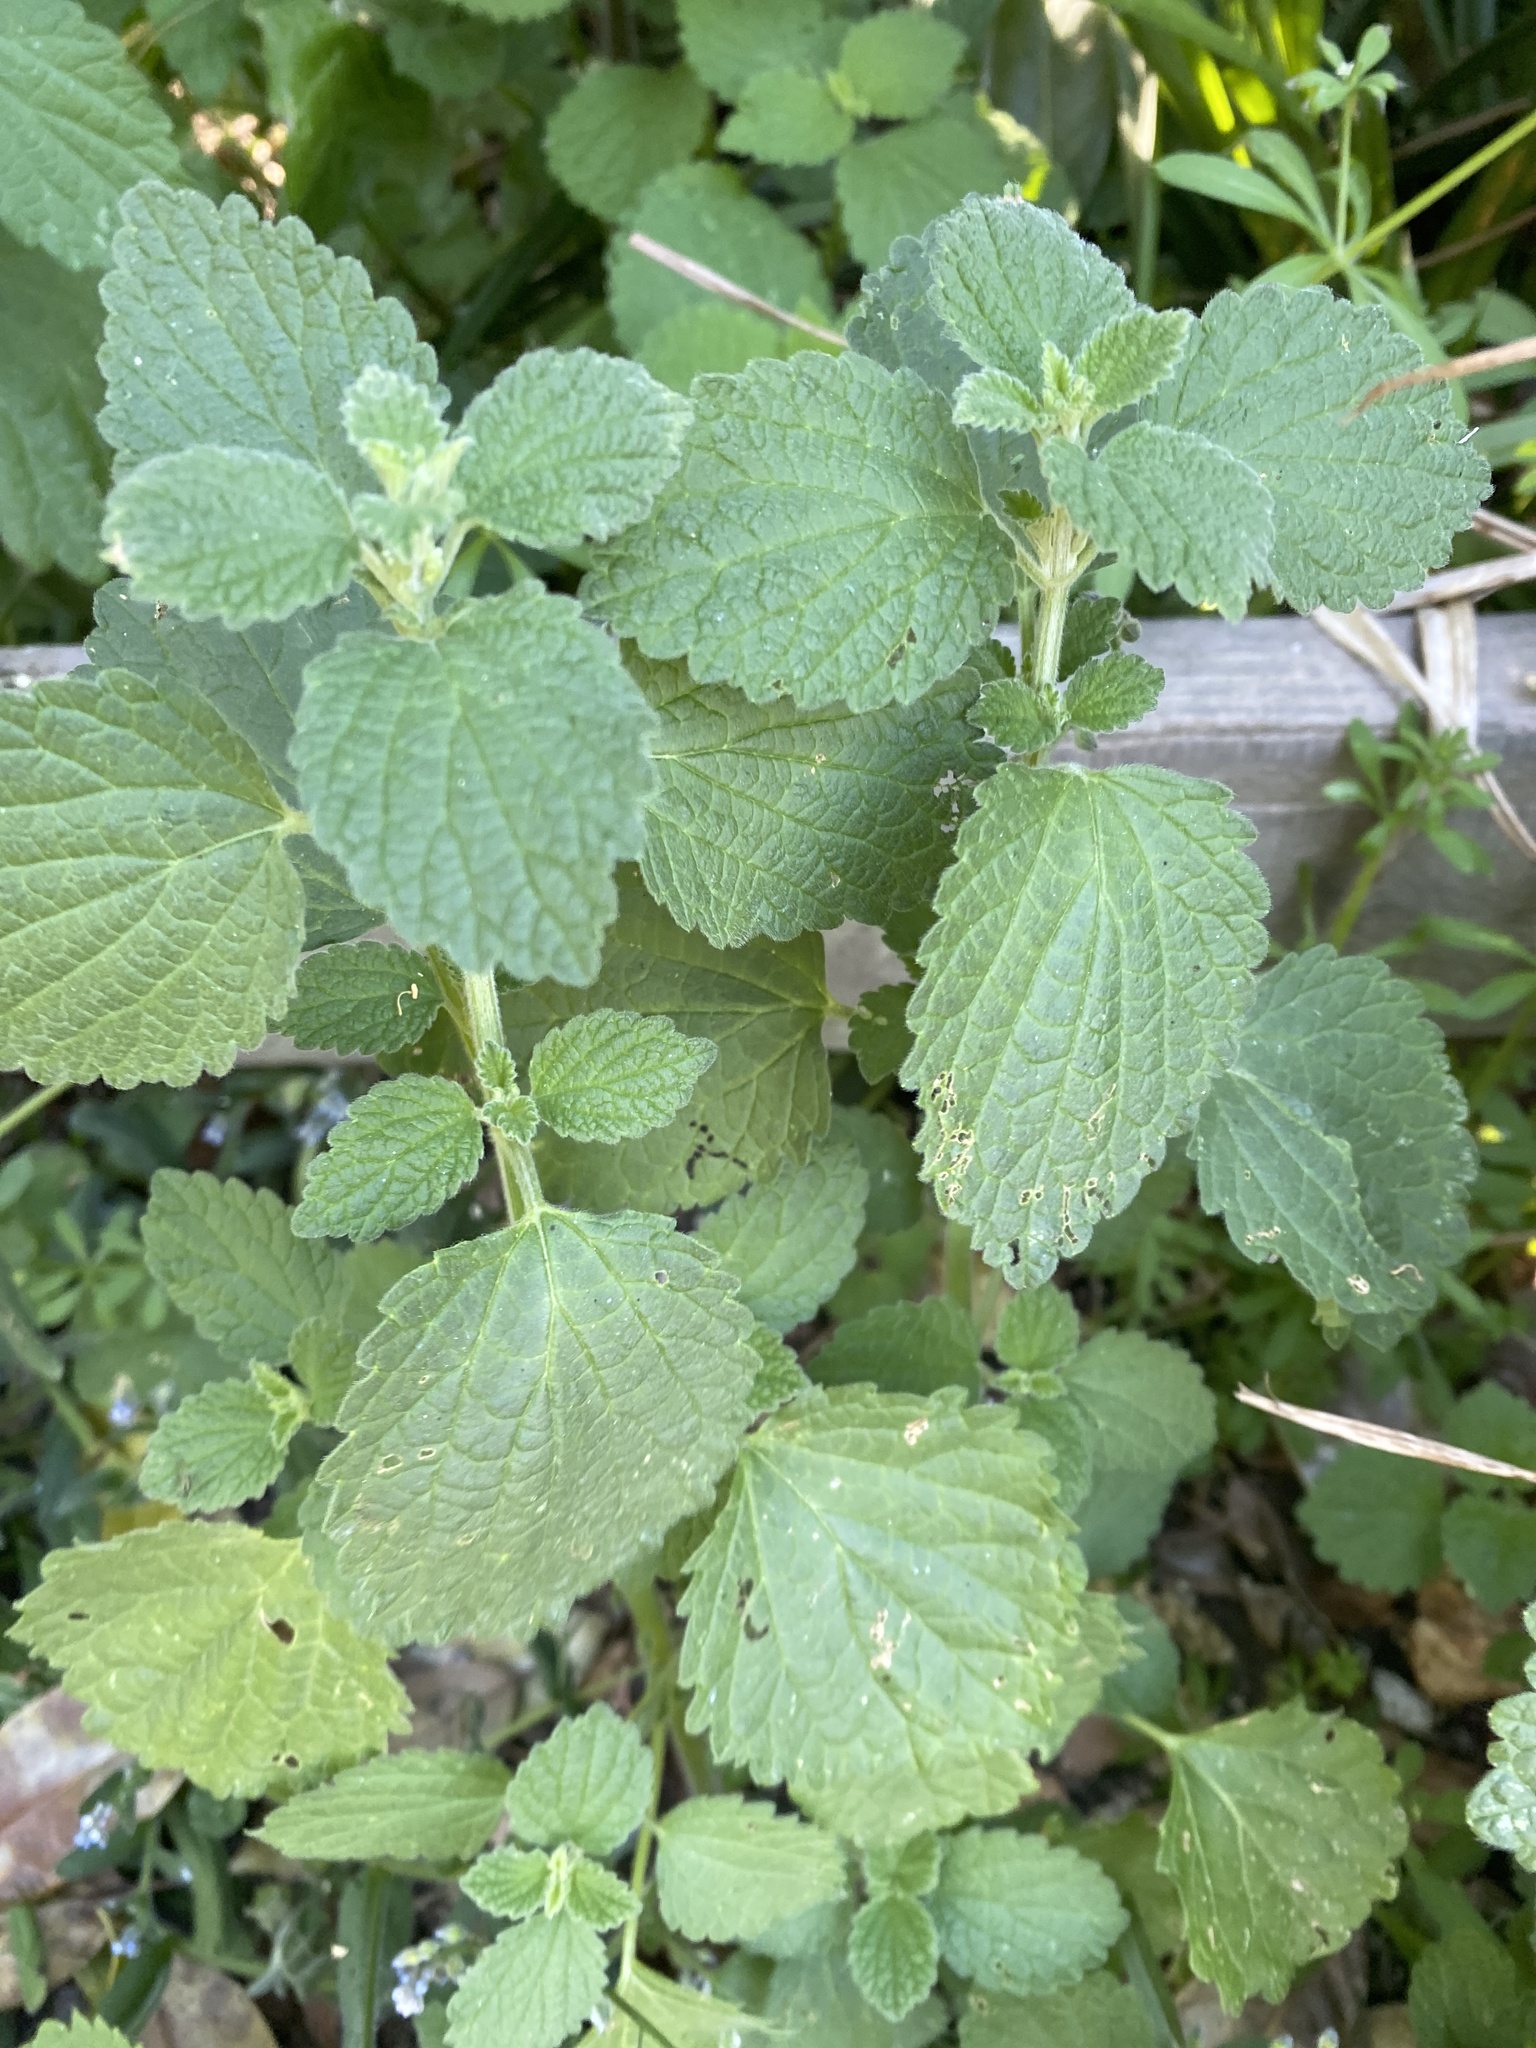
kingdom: Plantae
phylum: Tracheophyta
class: Magnoliopsida
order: Lamiales
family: Lamiaceae
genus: Ballota
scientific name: Ballota nigra
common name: Black horehound
